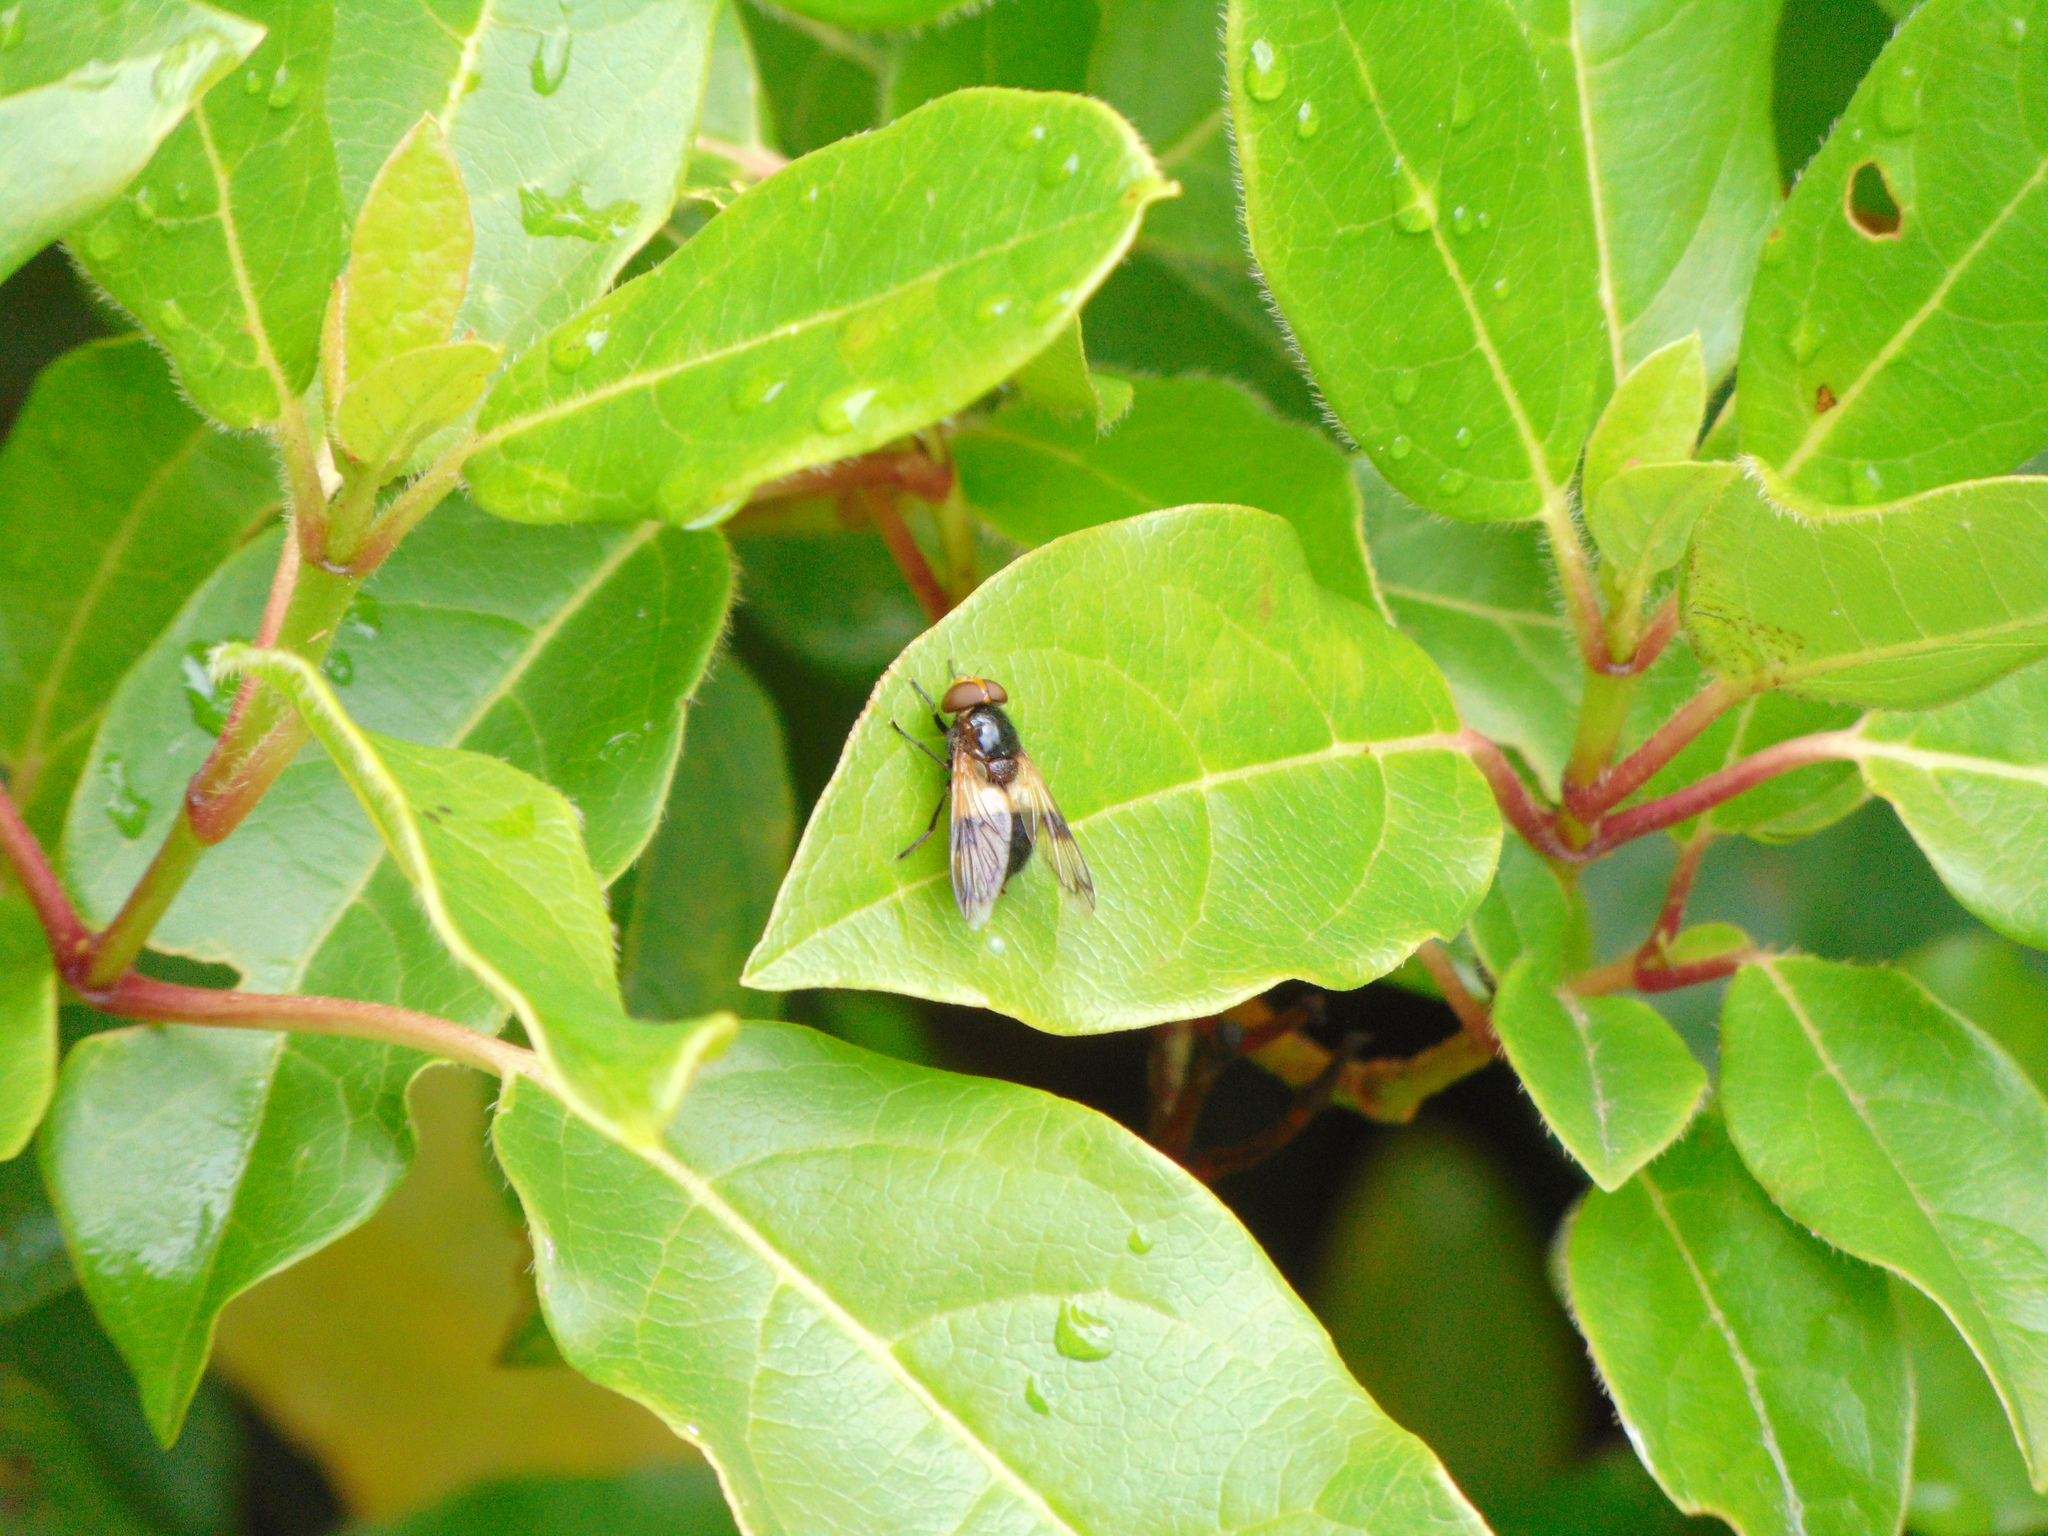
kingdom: Animalia
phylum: Arthropoda
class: Insecta
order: Diptera
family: Syrphidae
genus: Volucella
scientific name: Volucella pellucens
